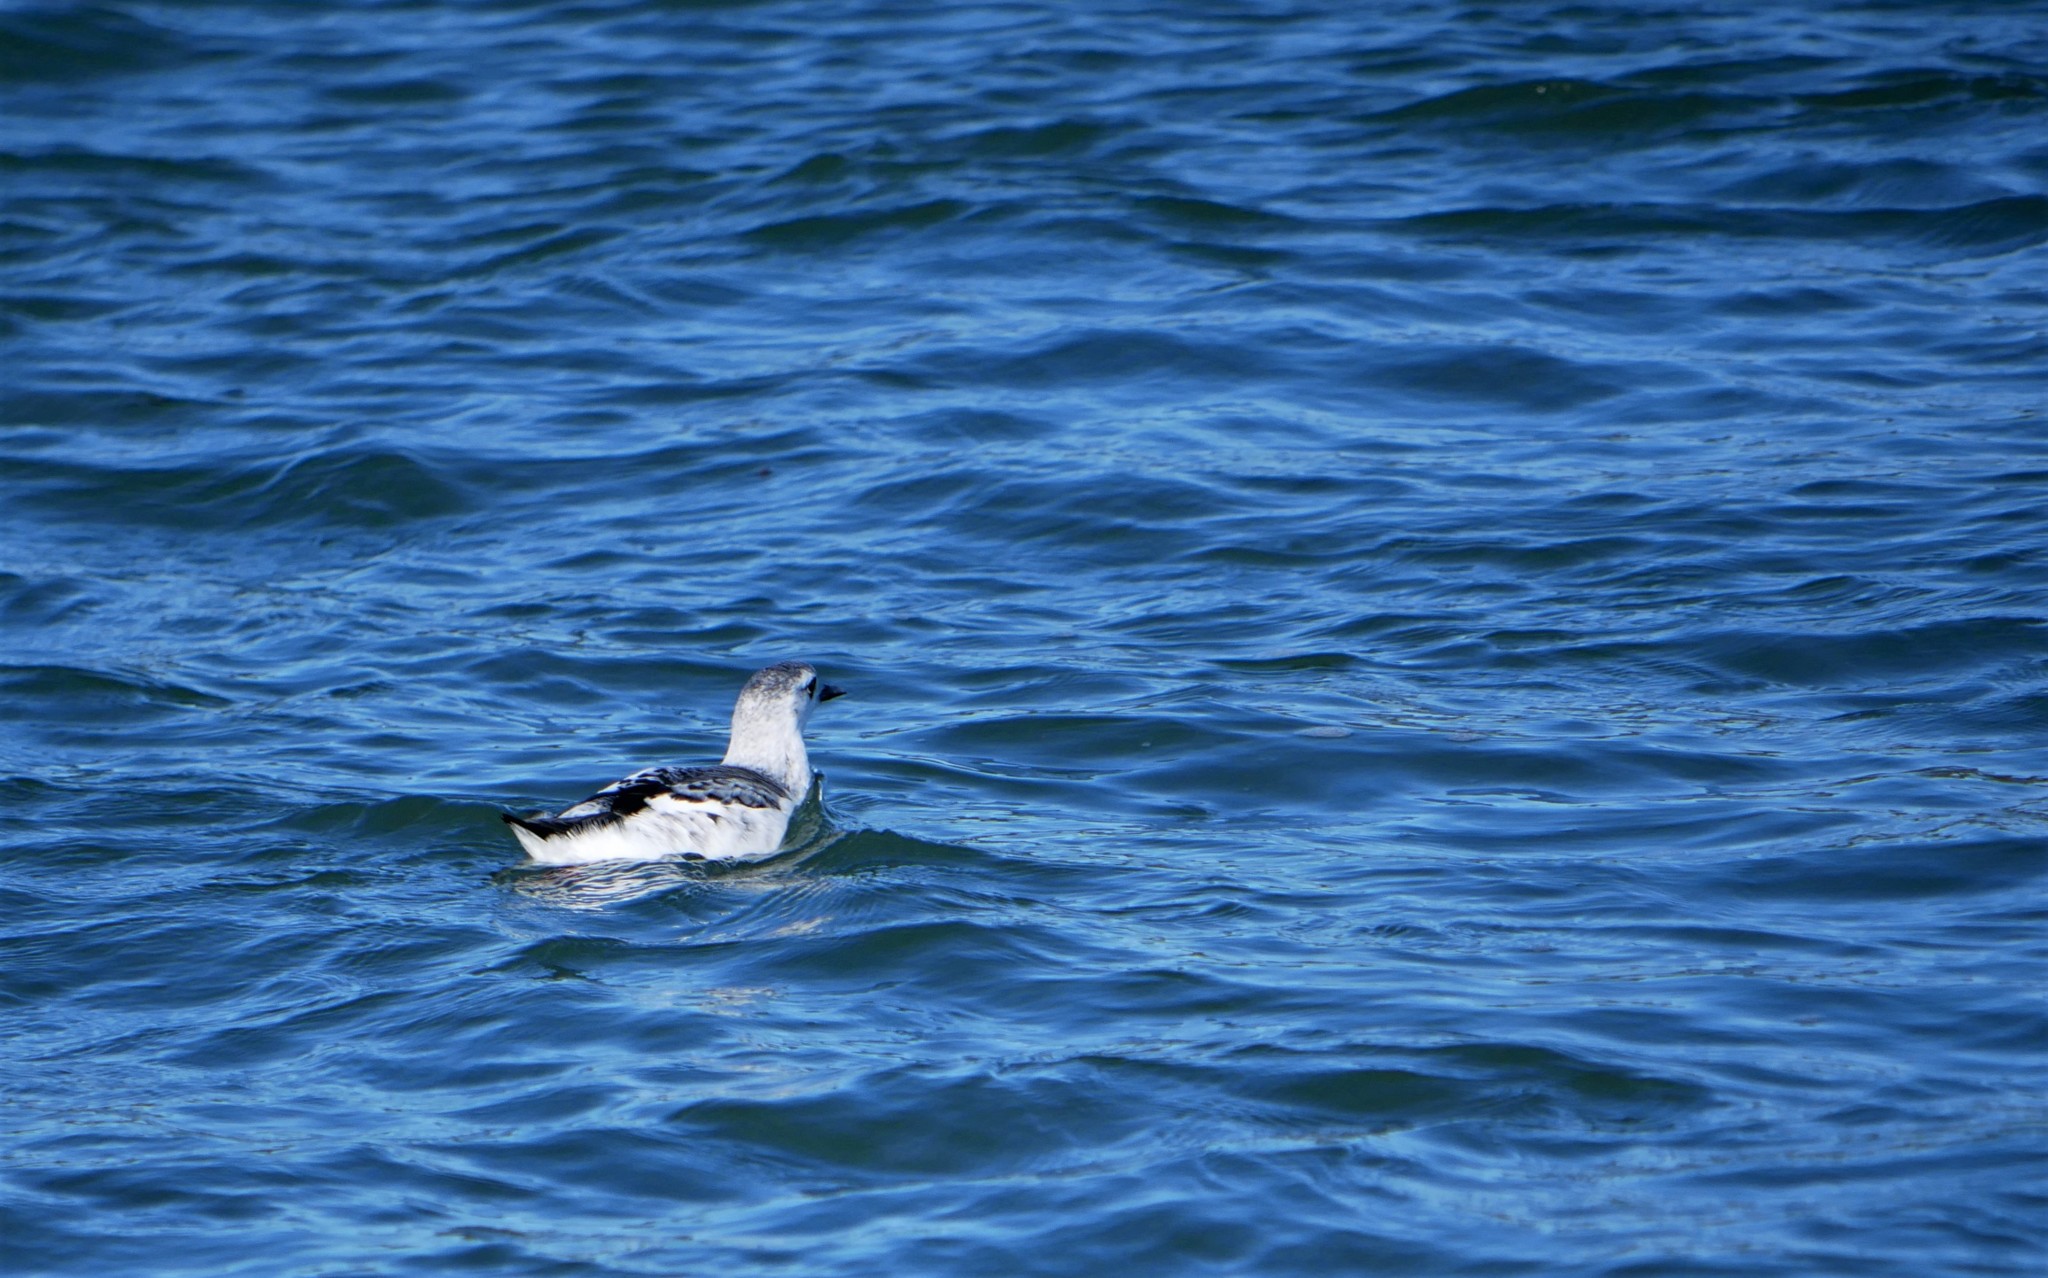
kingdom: Animalia
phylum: Chordata
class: Aves
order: Charadriiformes
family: Alcidae
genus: Cepphus
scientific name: Cepphus grylle
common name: Black guillemot
